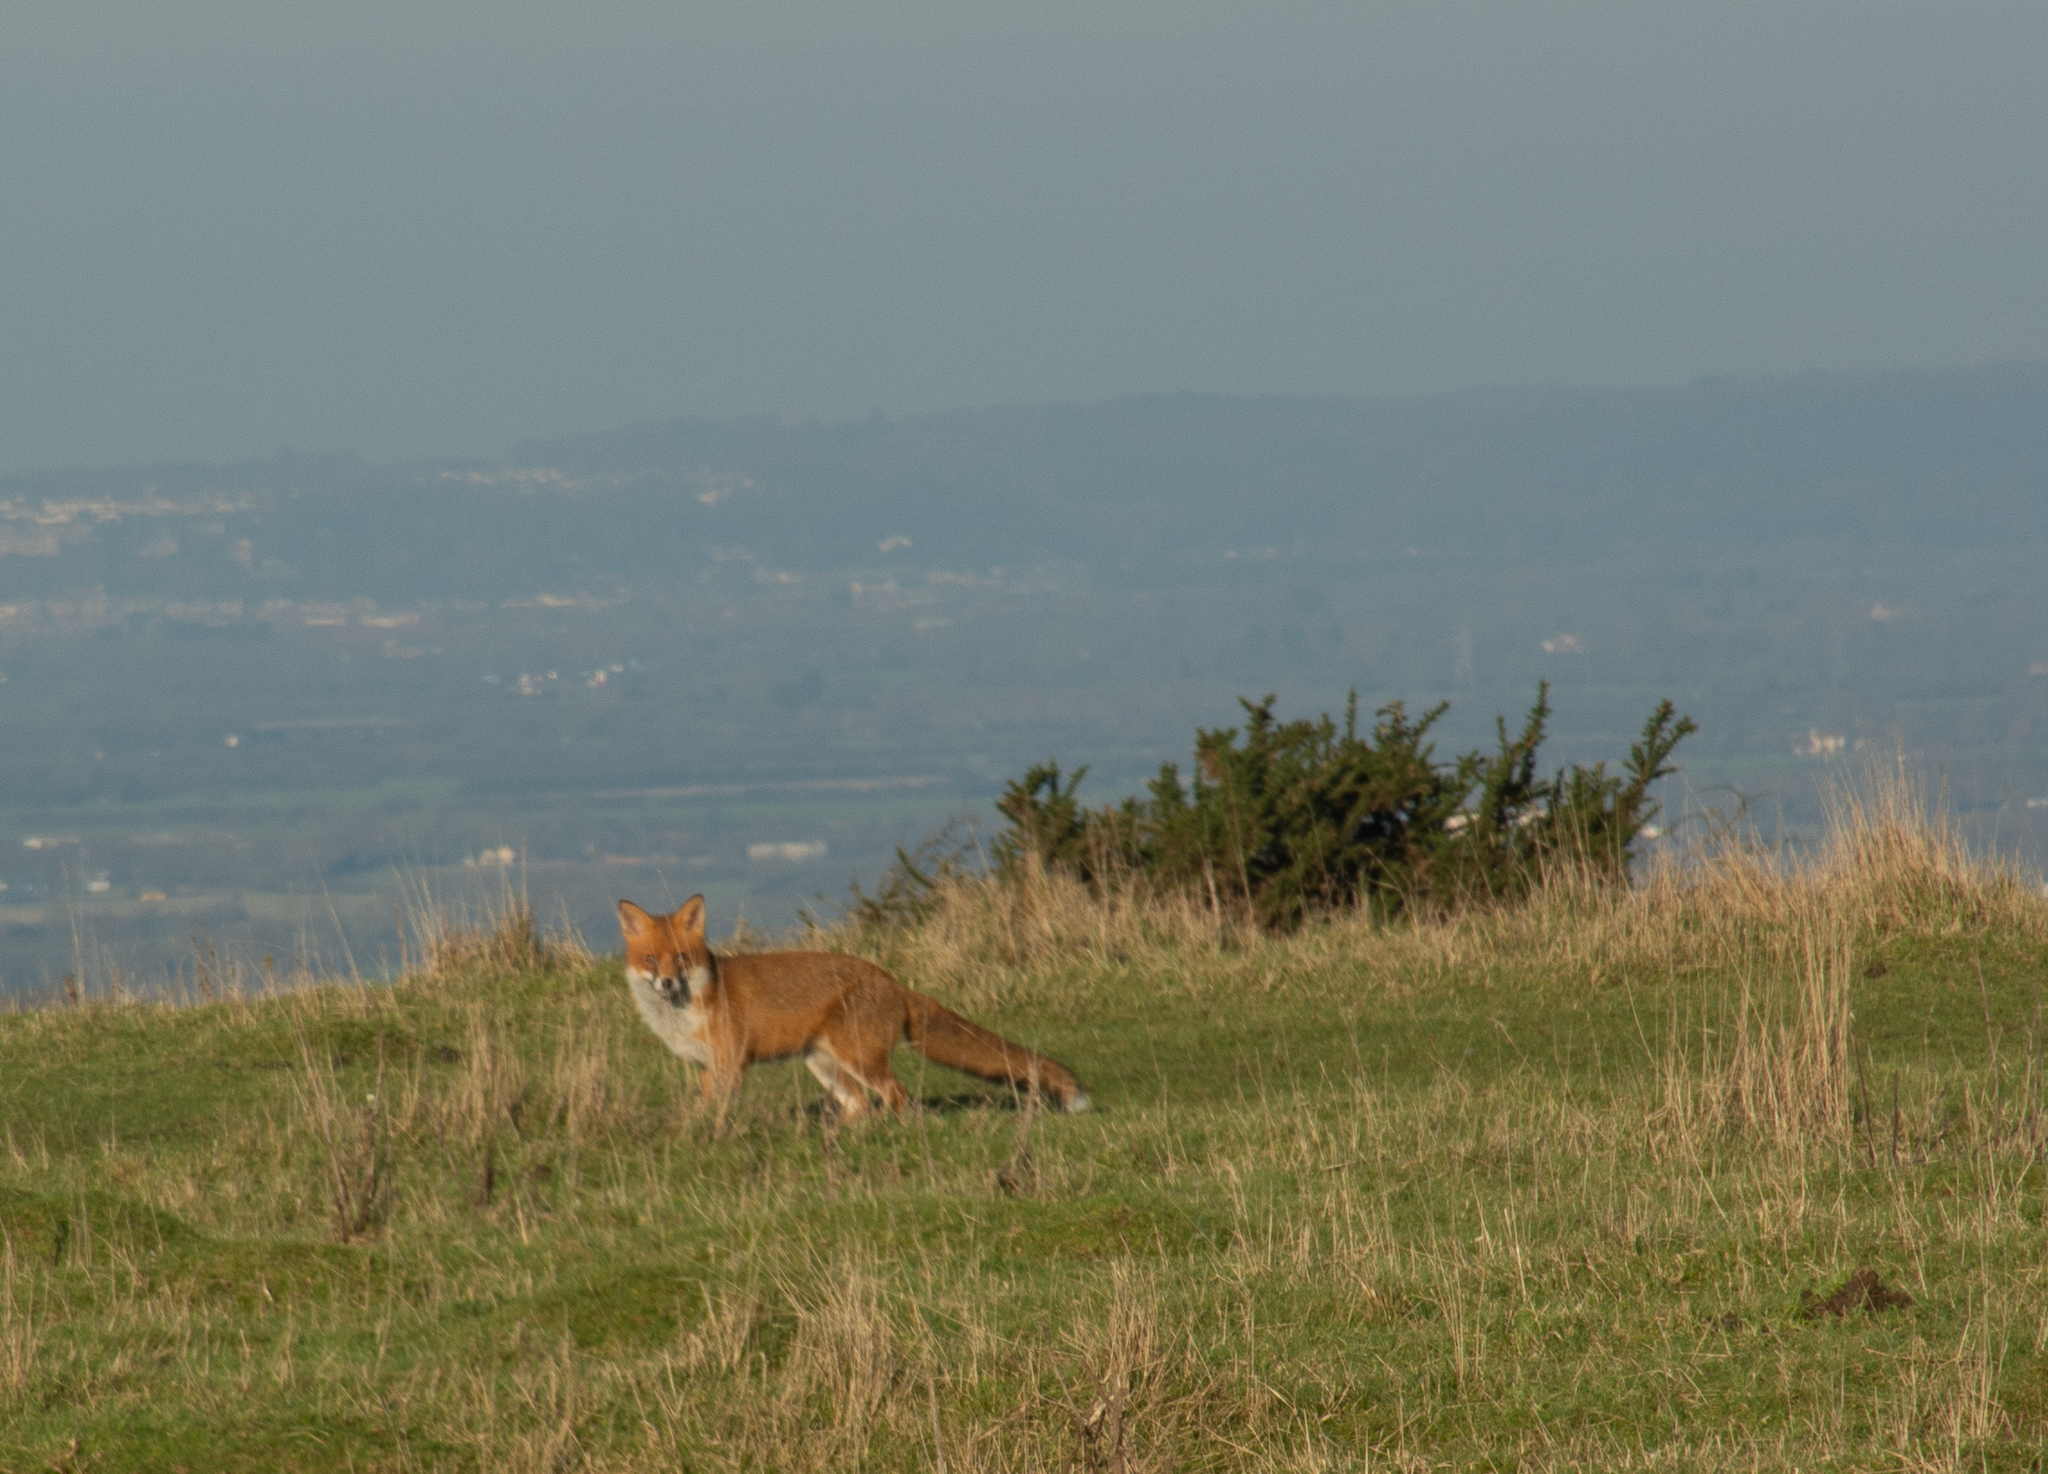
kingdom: Animalia
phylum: Chordata
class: Mammalia
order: Carnivora
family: Canidae
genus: Vulpes
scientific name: Vulpes vulpes
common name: Red fox
